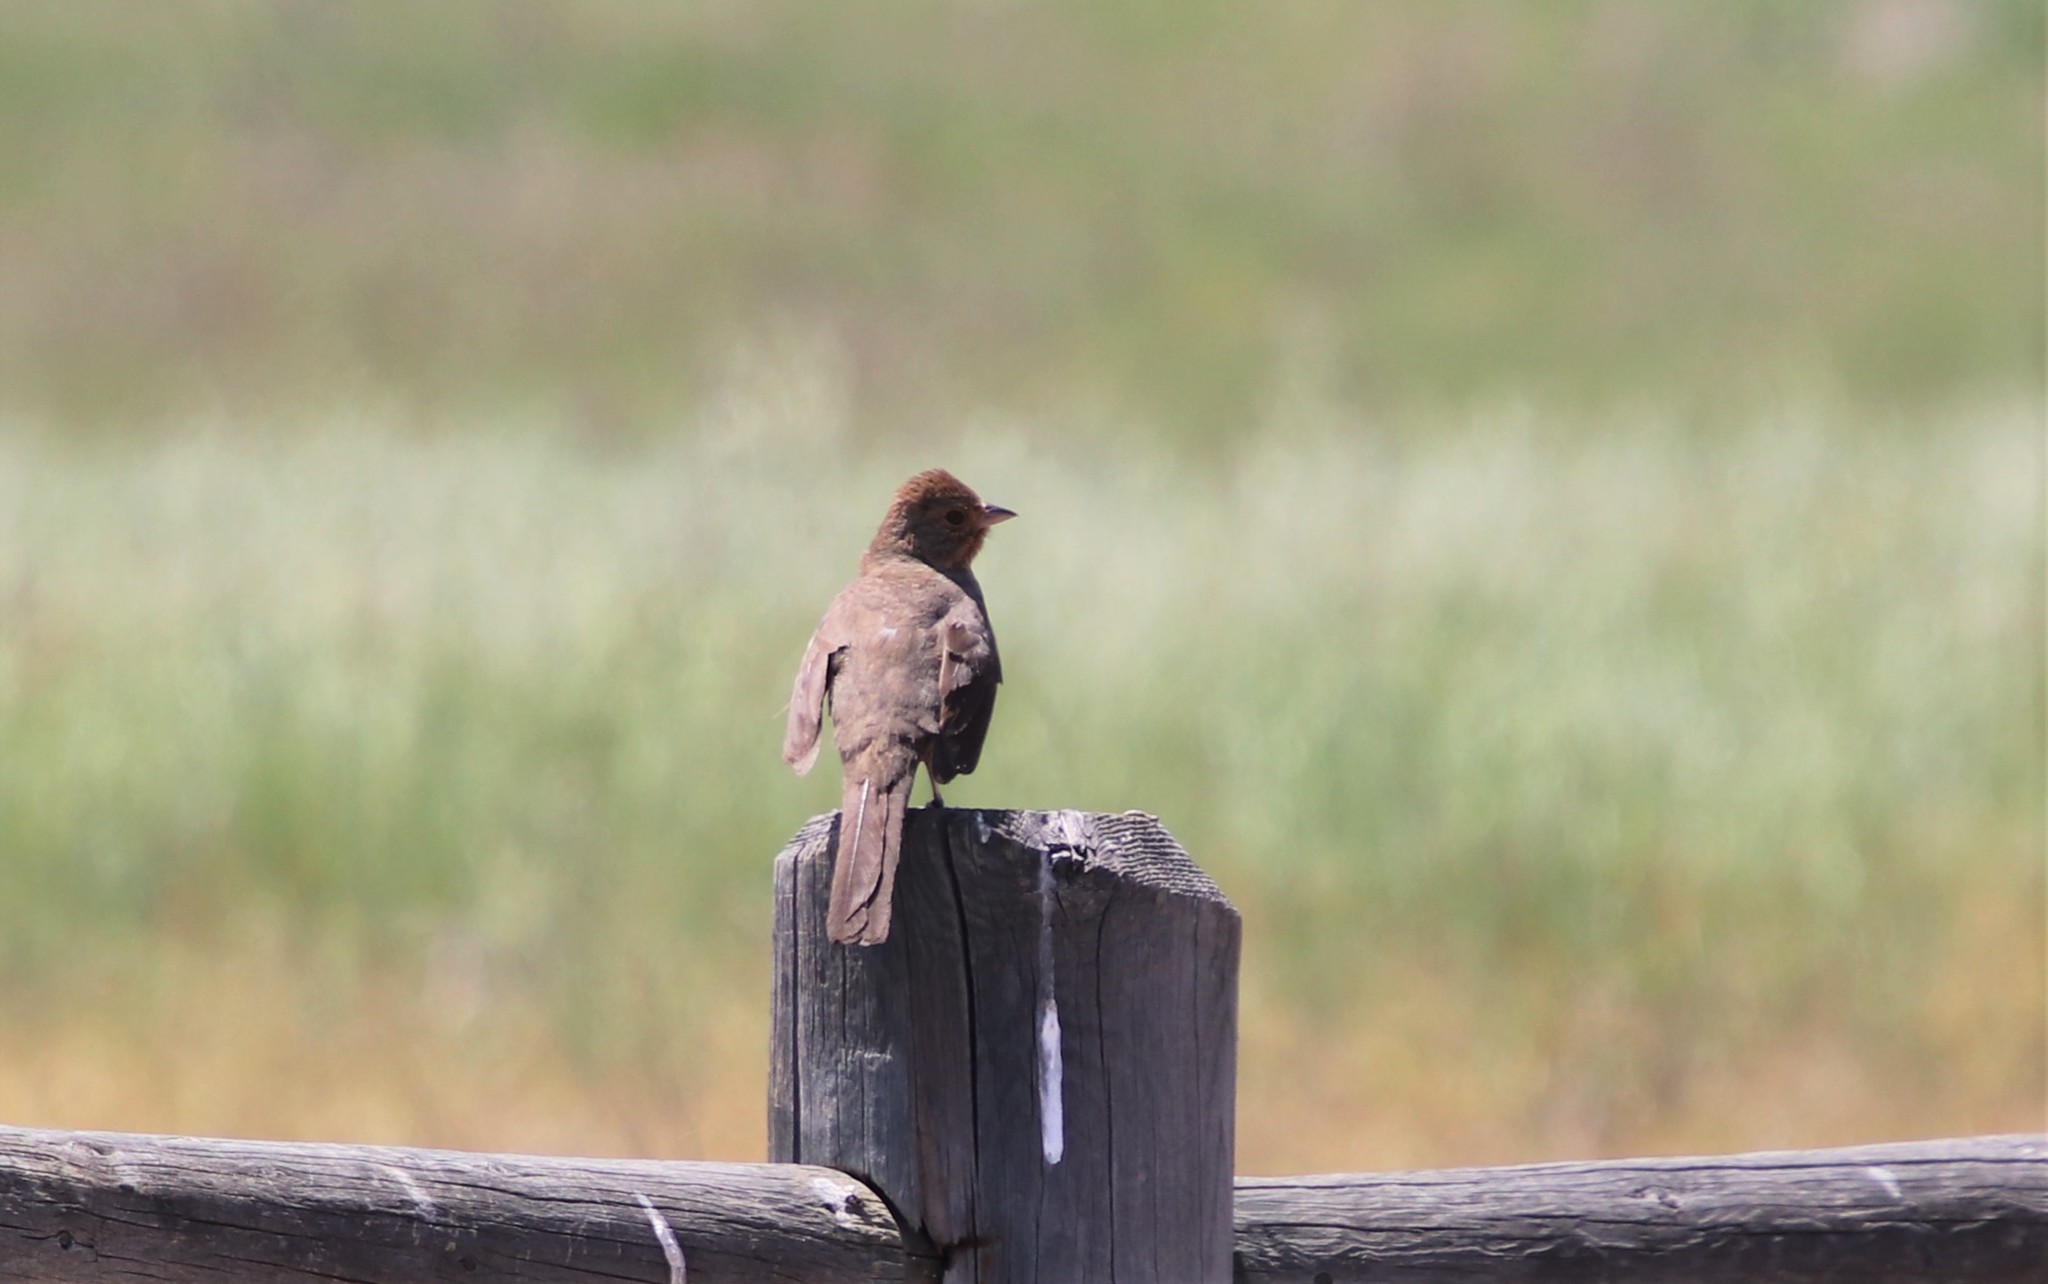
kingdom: Animalia
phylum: Chordata
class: Aves
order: Passeriformes
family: Passerellidae
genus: Melozone
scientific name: Melozone crissalis
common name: California towhee
